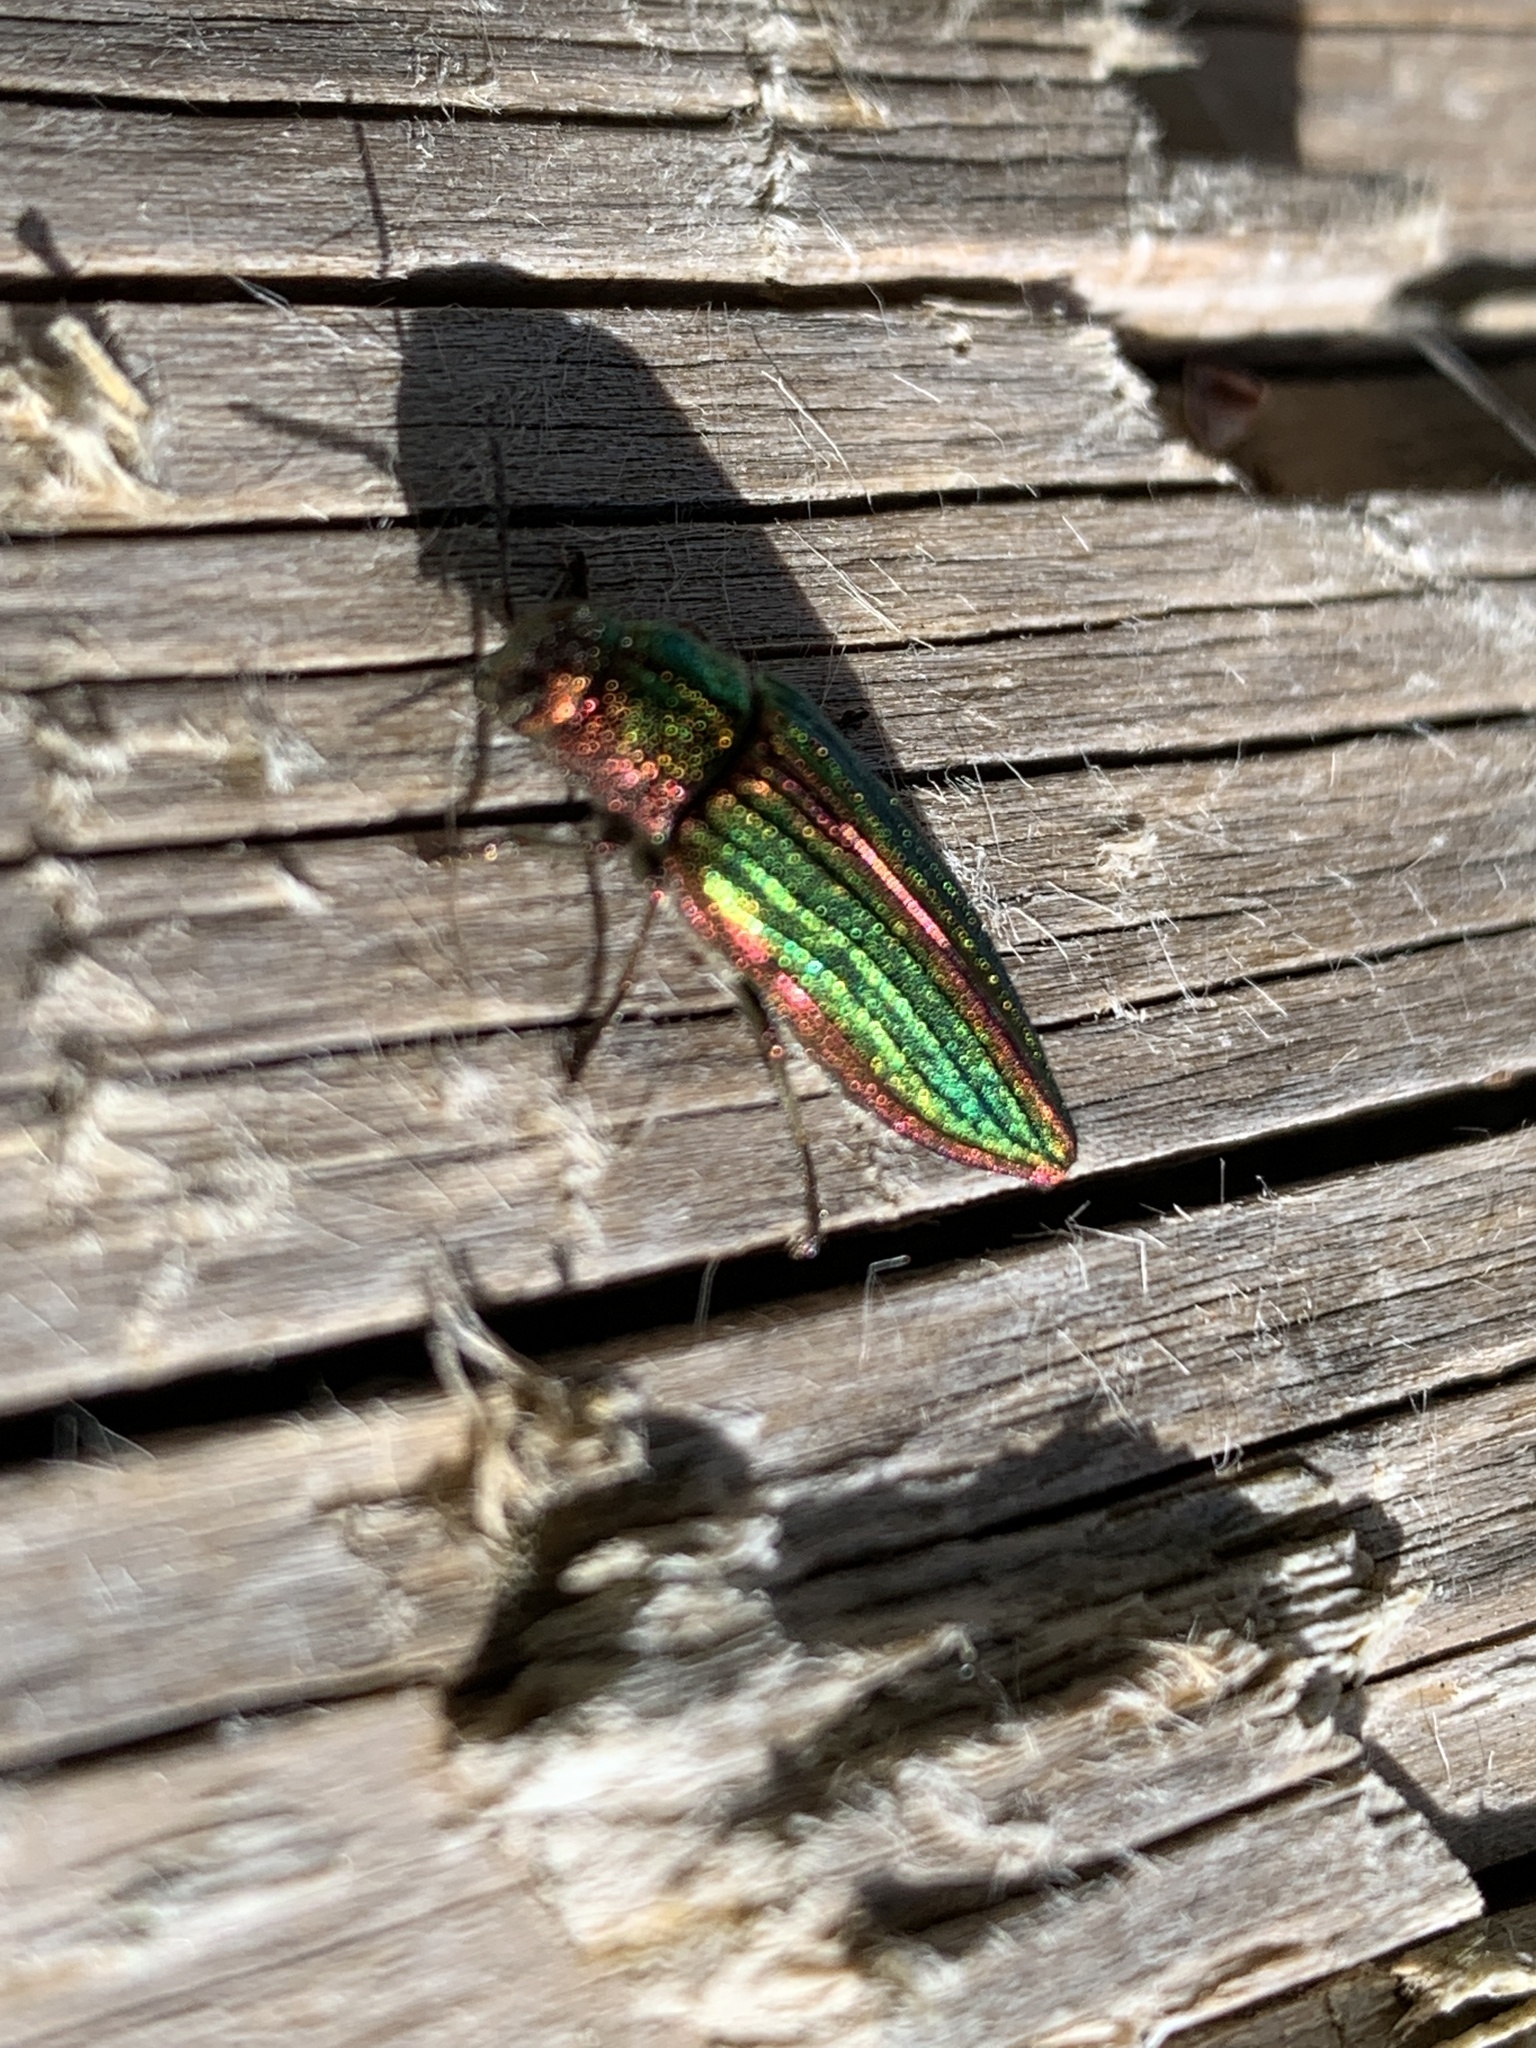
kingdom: Animalia
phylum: Arthropoda
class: Insecta
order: Coleoptera
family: Buprestidae
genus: Buprestis
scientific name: Buprestis aurulenta
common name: Golden buprestid
